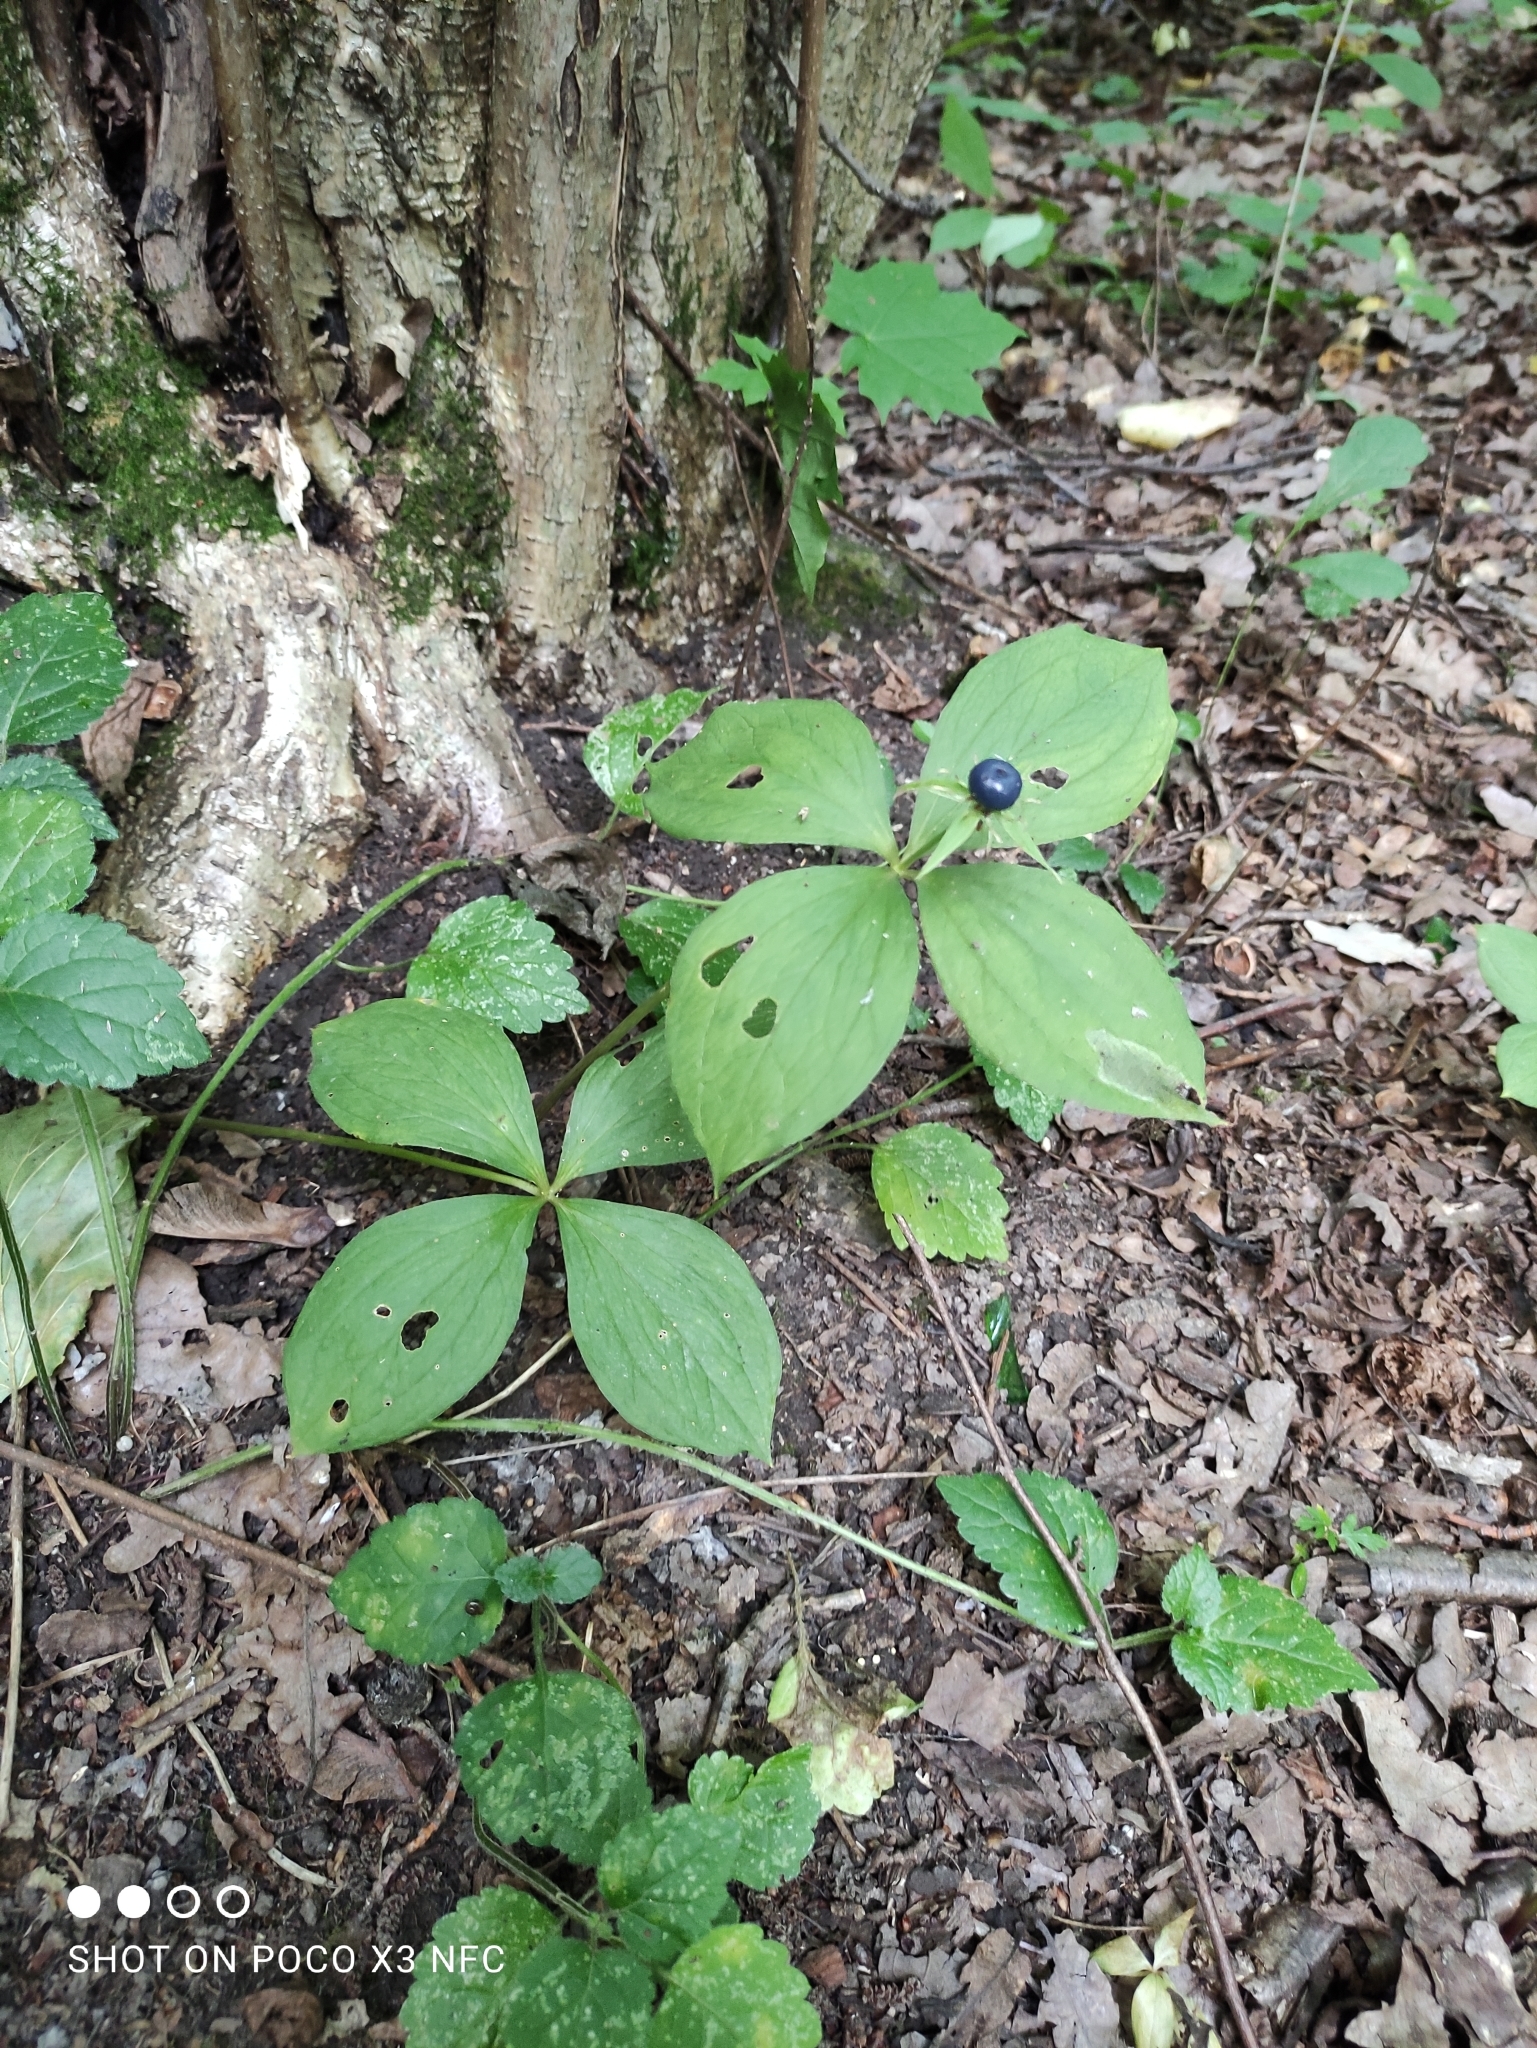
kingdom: Plantae
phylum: Tracheophyta
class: Liliopsida
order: Liliales
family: Melanthiaceae
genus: Paris
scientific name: Paris quadrifolia
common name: Herb-paris
